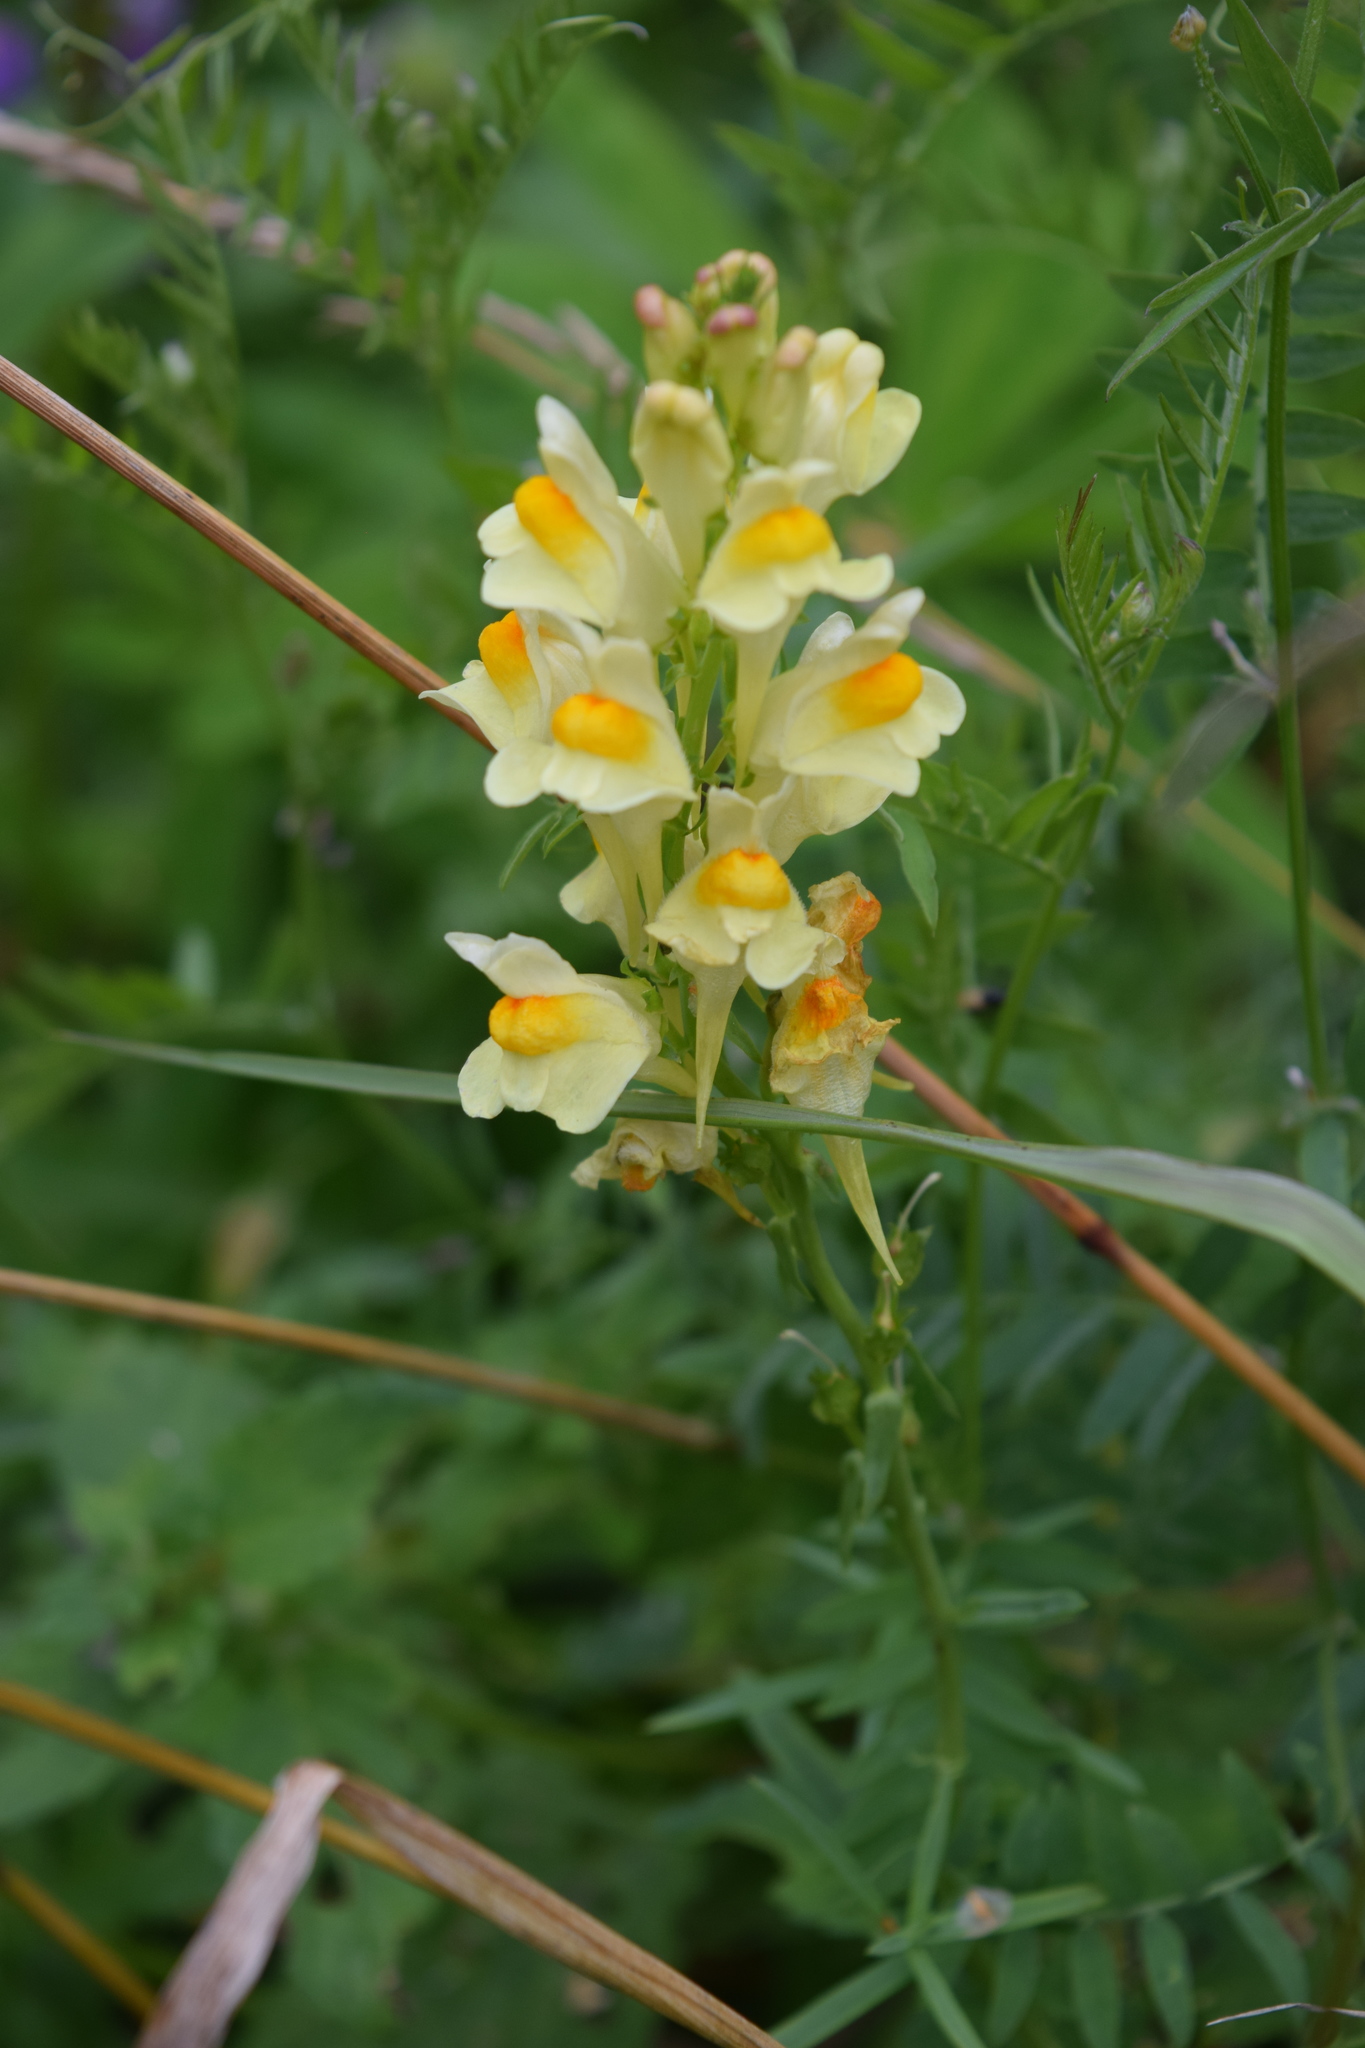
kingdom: Plantae
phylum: Tracheophyta
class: Magnoliopsida
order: Lamiales
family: Plantaginaceae
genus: Linaria
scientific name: Linaria vulgaris
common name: Butter and eggs
